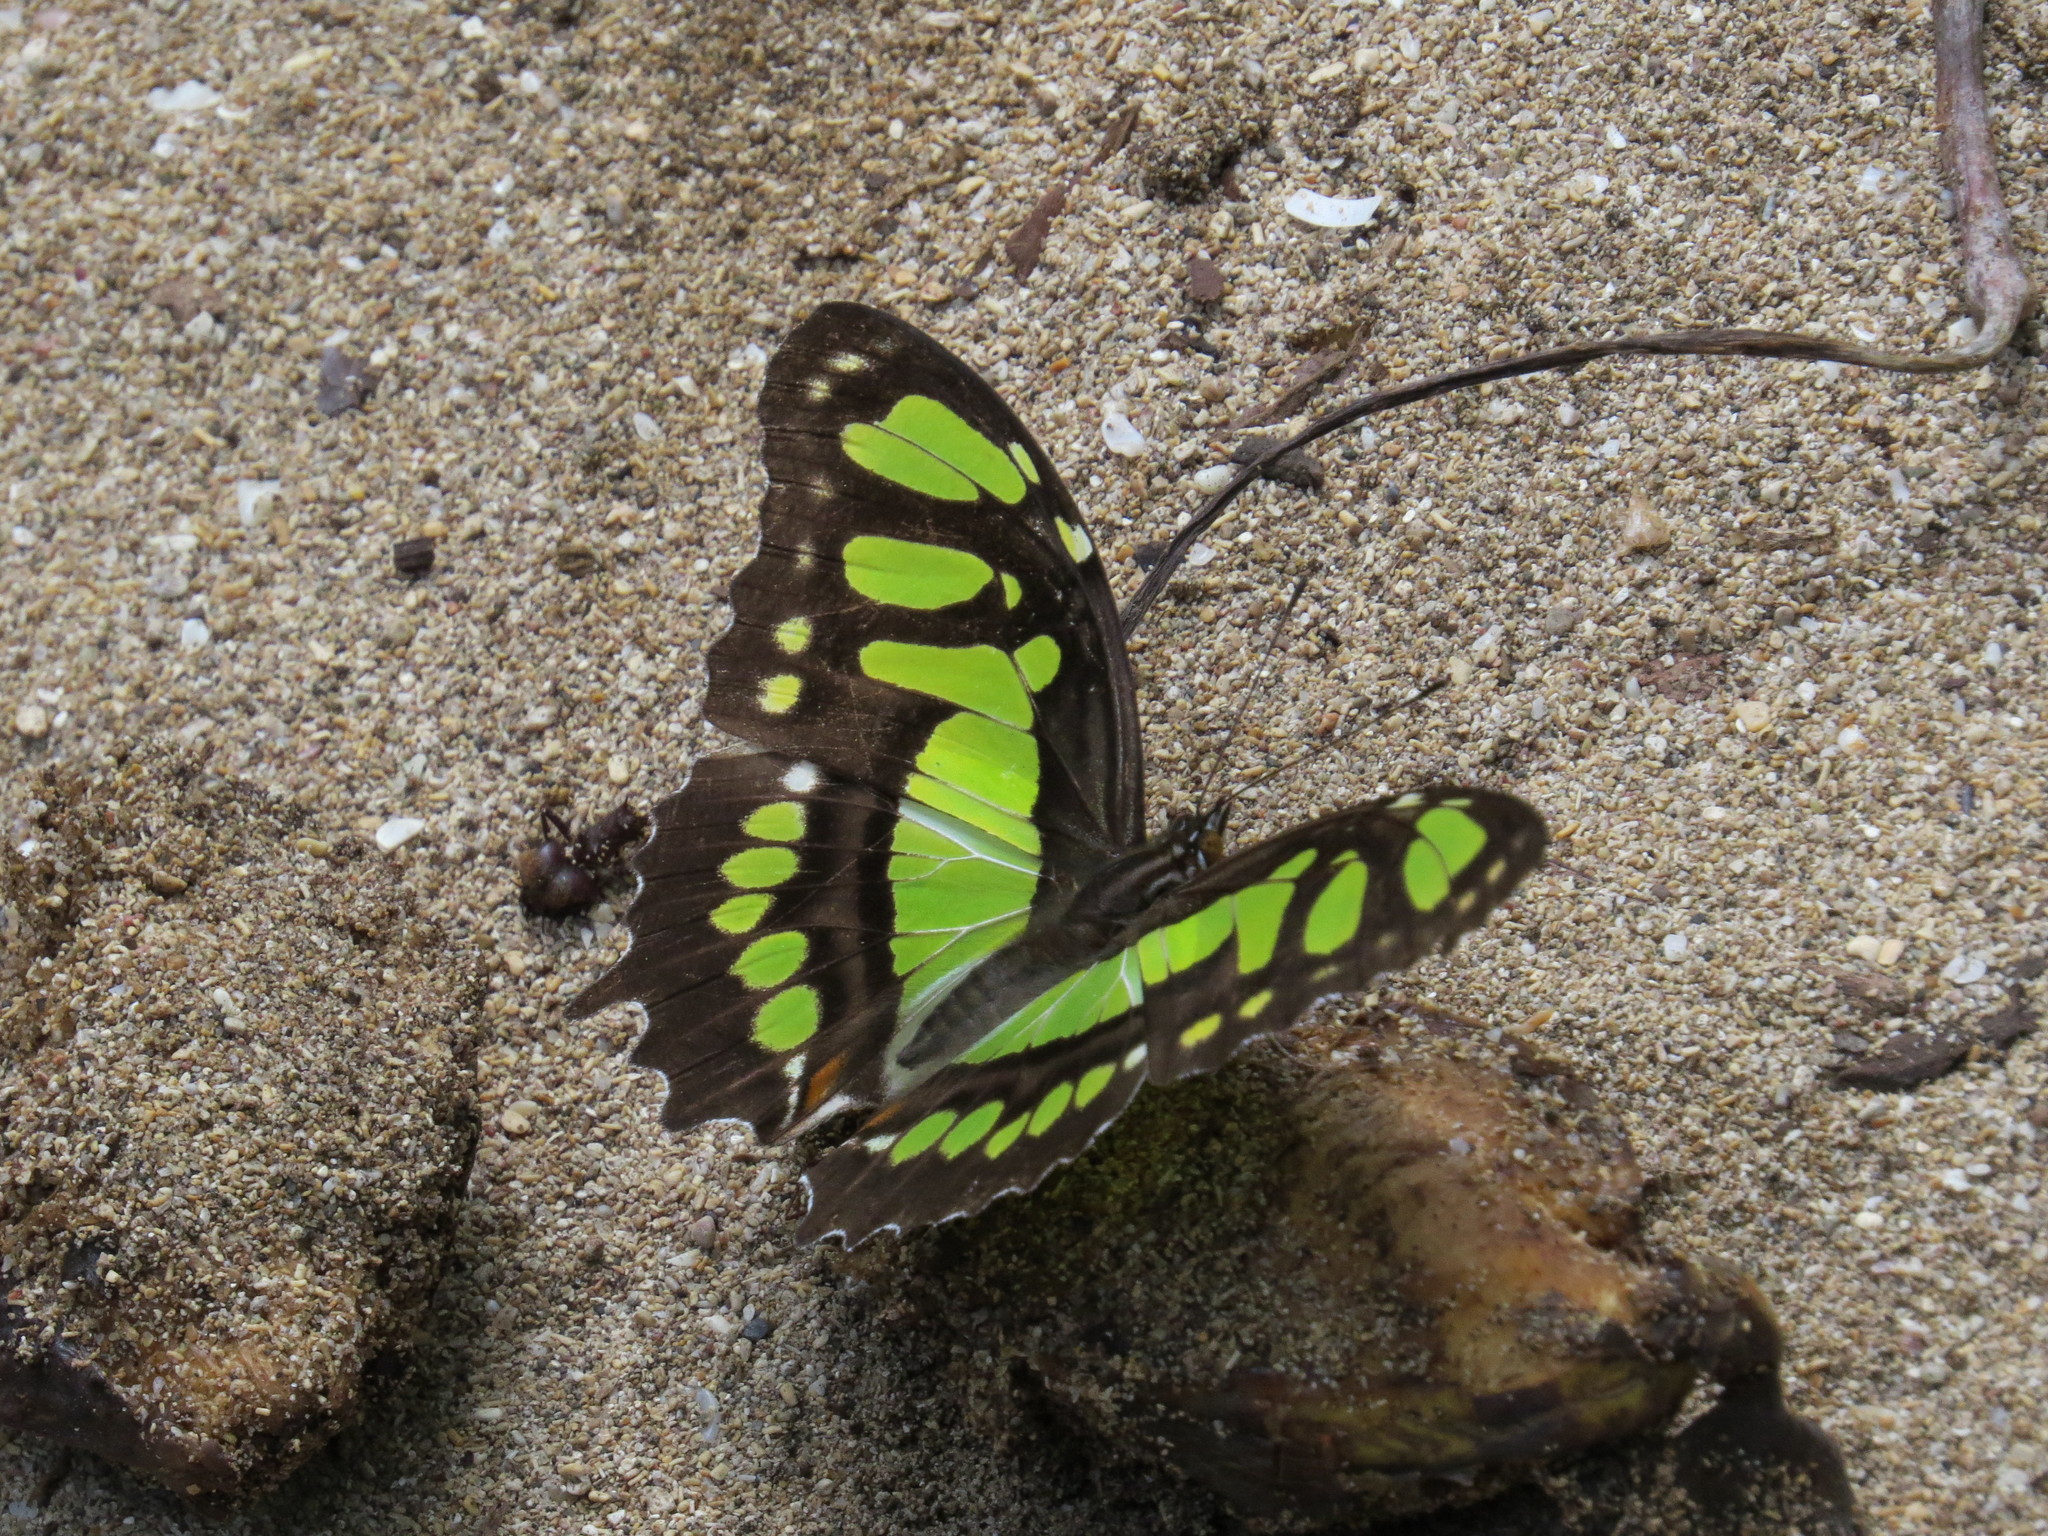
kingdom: Animalia
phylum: Arthropoda
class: Insecta
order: Lepidoptera
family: Nymphalidae
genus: Siproeta
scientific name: Siproeta stelenes
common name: Malachite
